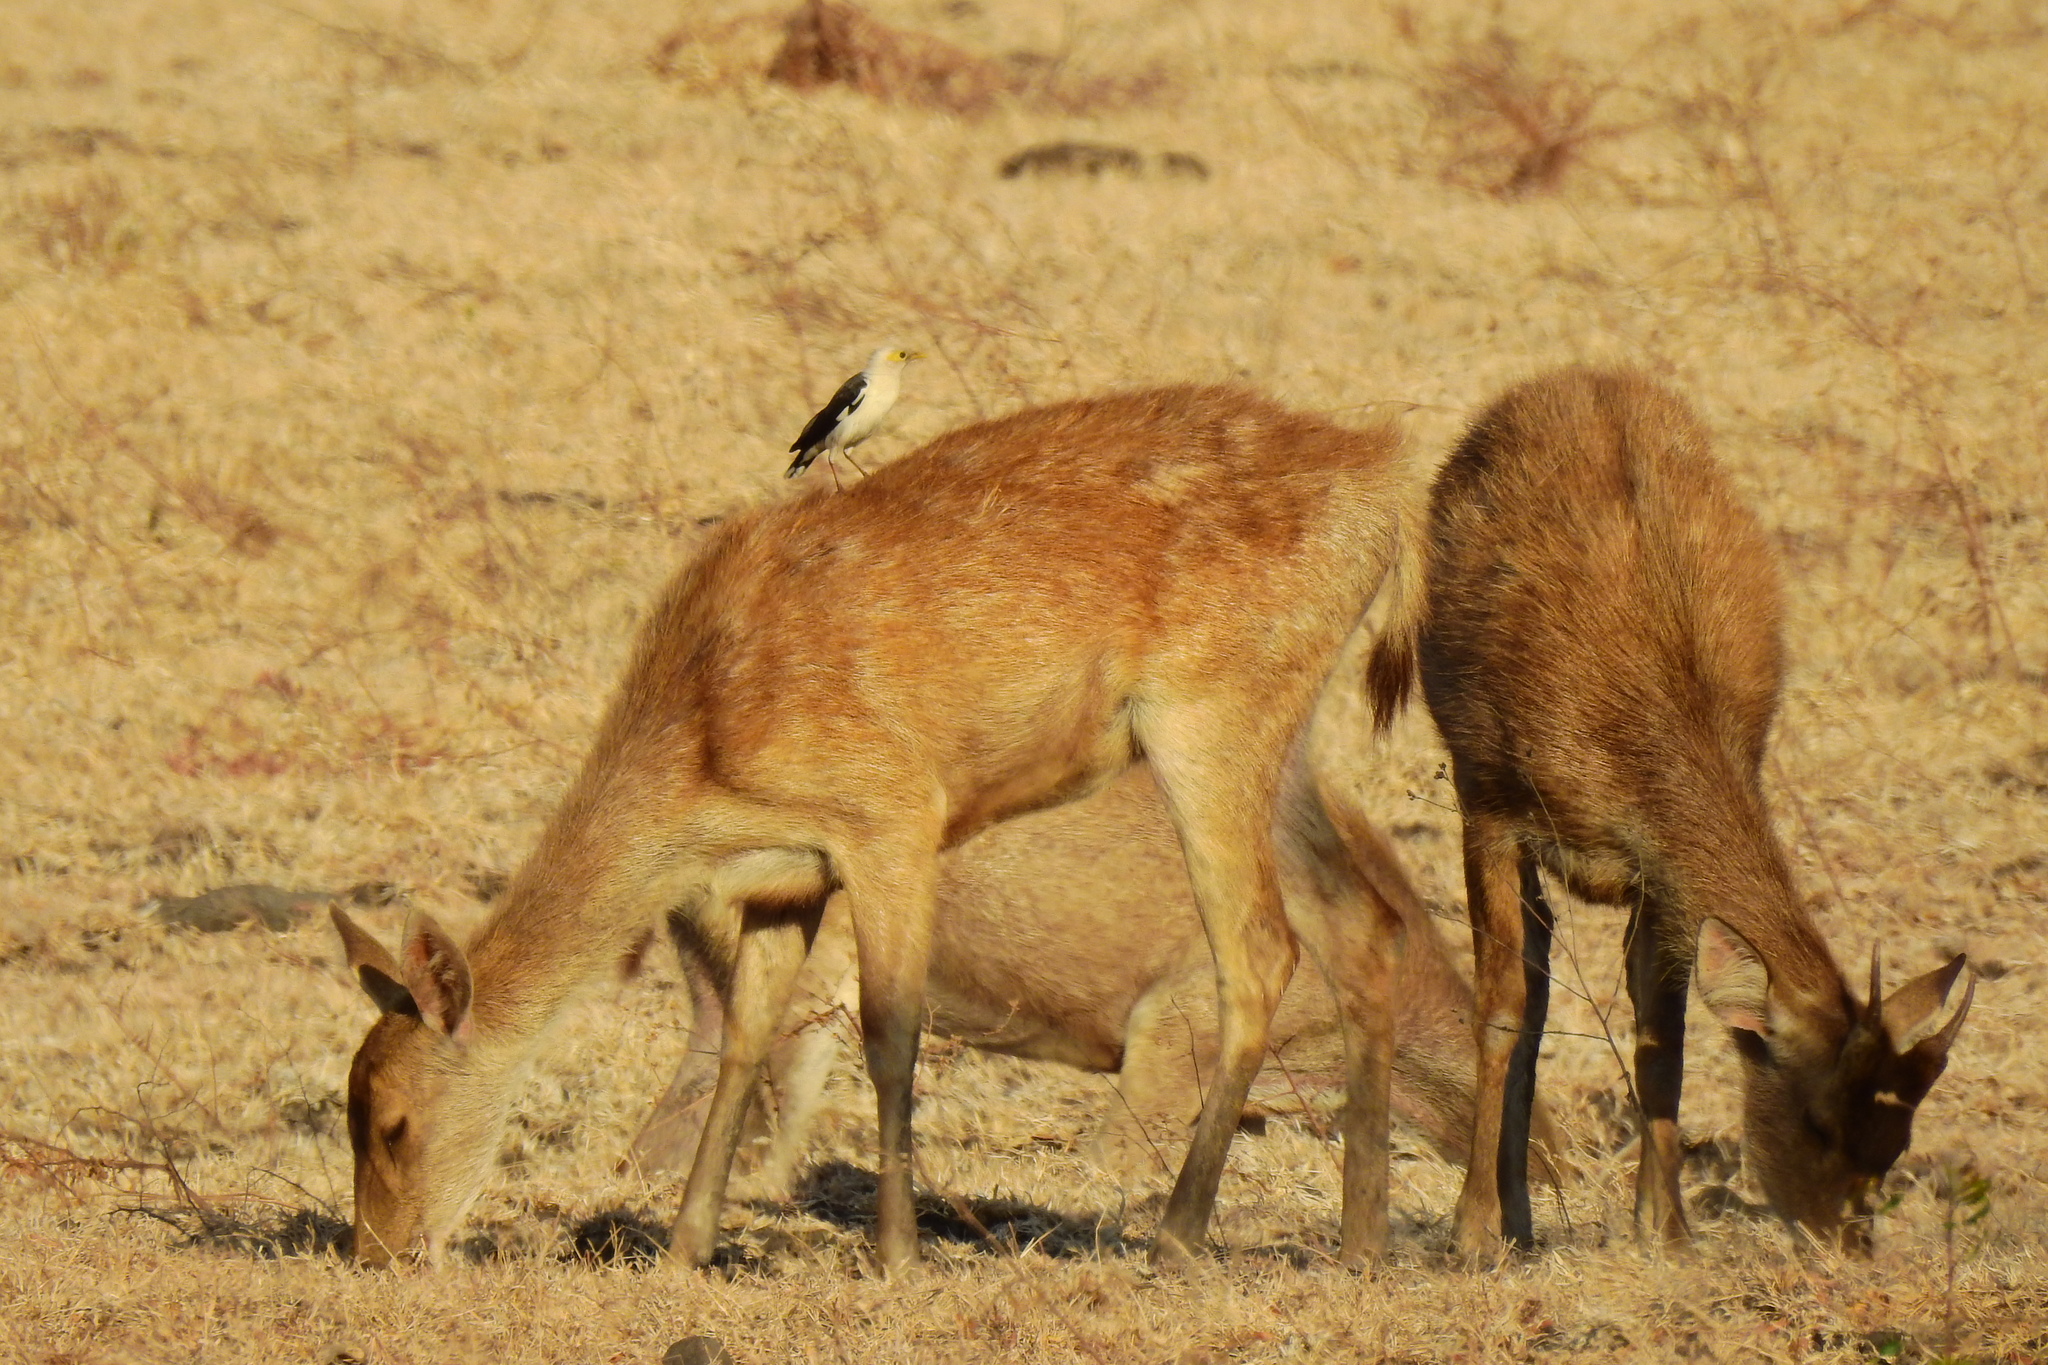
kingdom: Animalia
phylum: Chordata
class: Aves
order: Passeriformes
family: Sturnidae
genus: Acridotheres
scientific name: Acridotheres melanopterus
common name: Black-winged starling
